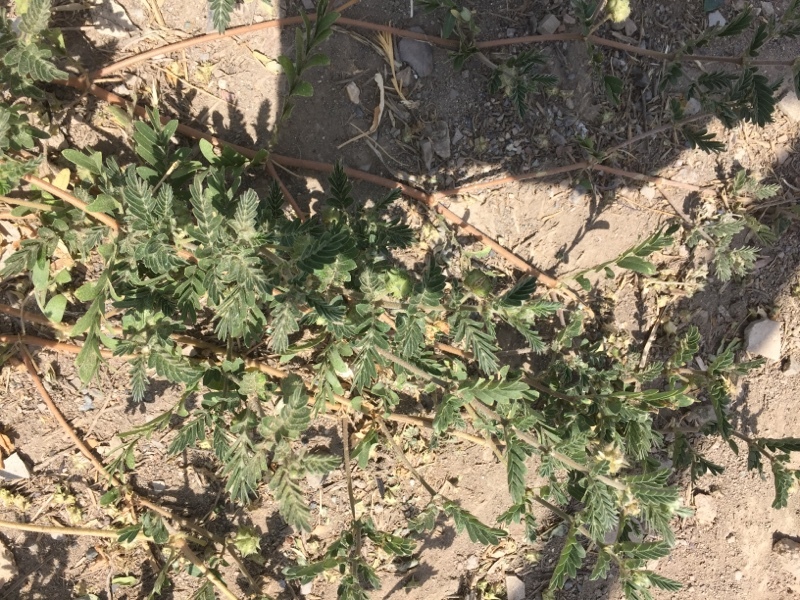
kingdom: Plantae
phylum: Tracheophyta
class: Magnoliopsida
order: Zygophyllales
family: Zygophyllaceae
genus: Tribulus
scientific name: Tribulus terrestris
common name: Puncturevine
